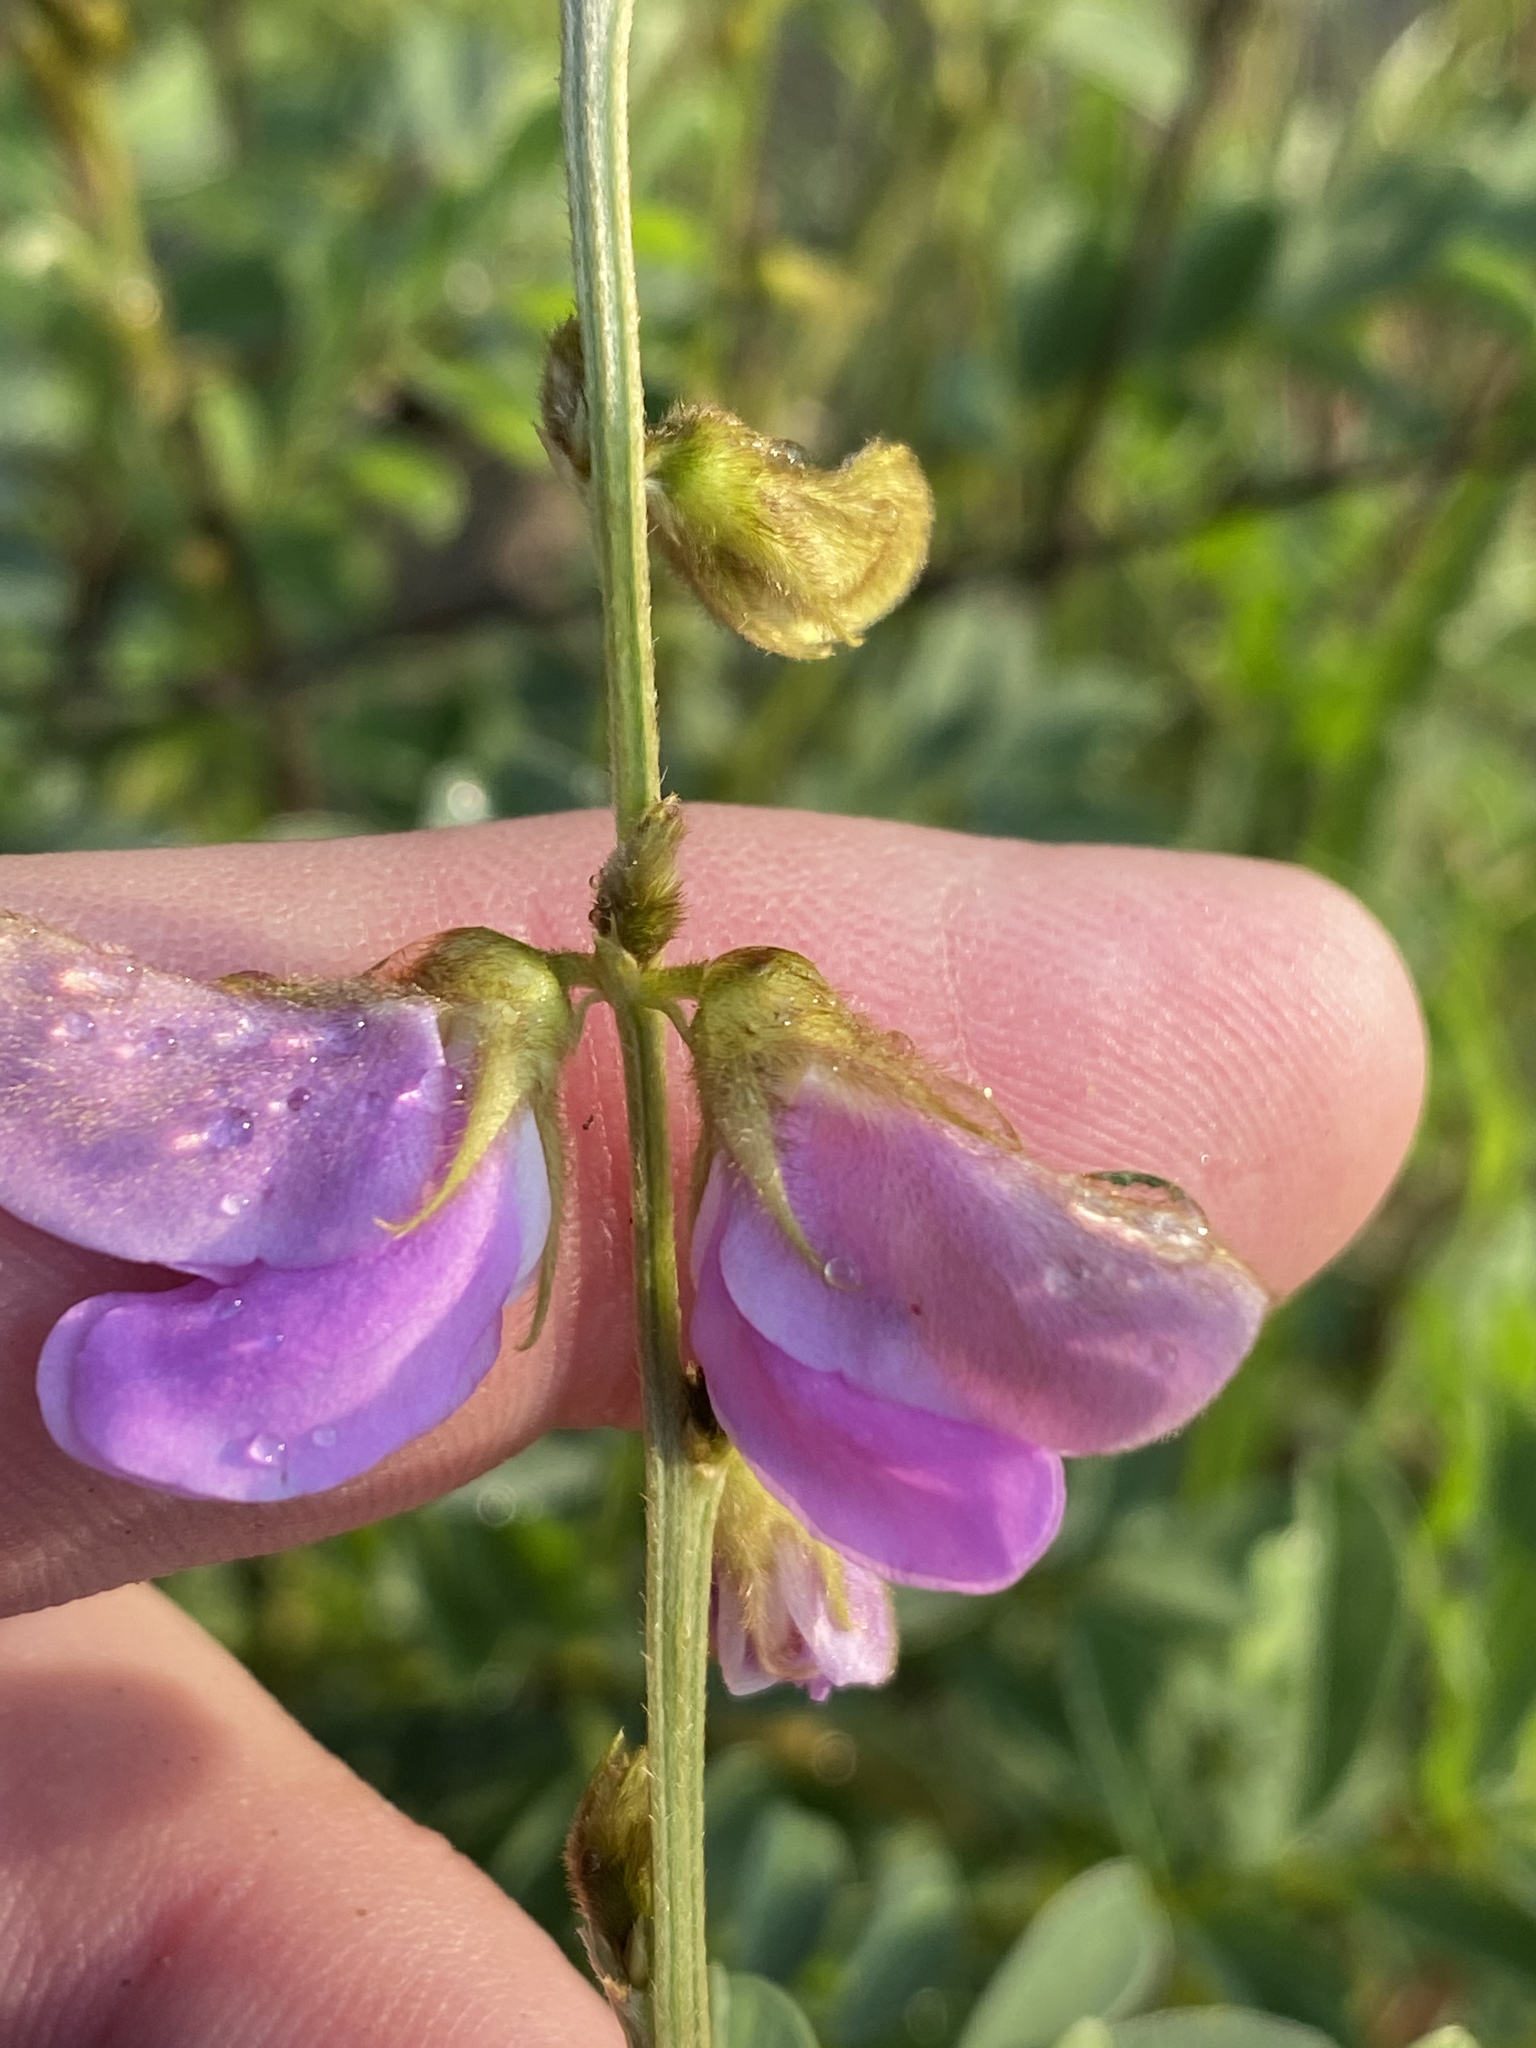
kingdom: Plantae
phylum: Tracheophyta
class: Magnoliopsida
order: Fabales
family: Fabaceae
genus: Tephrosia
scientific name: Tephrosia villosa
